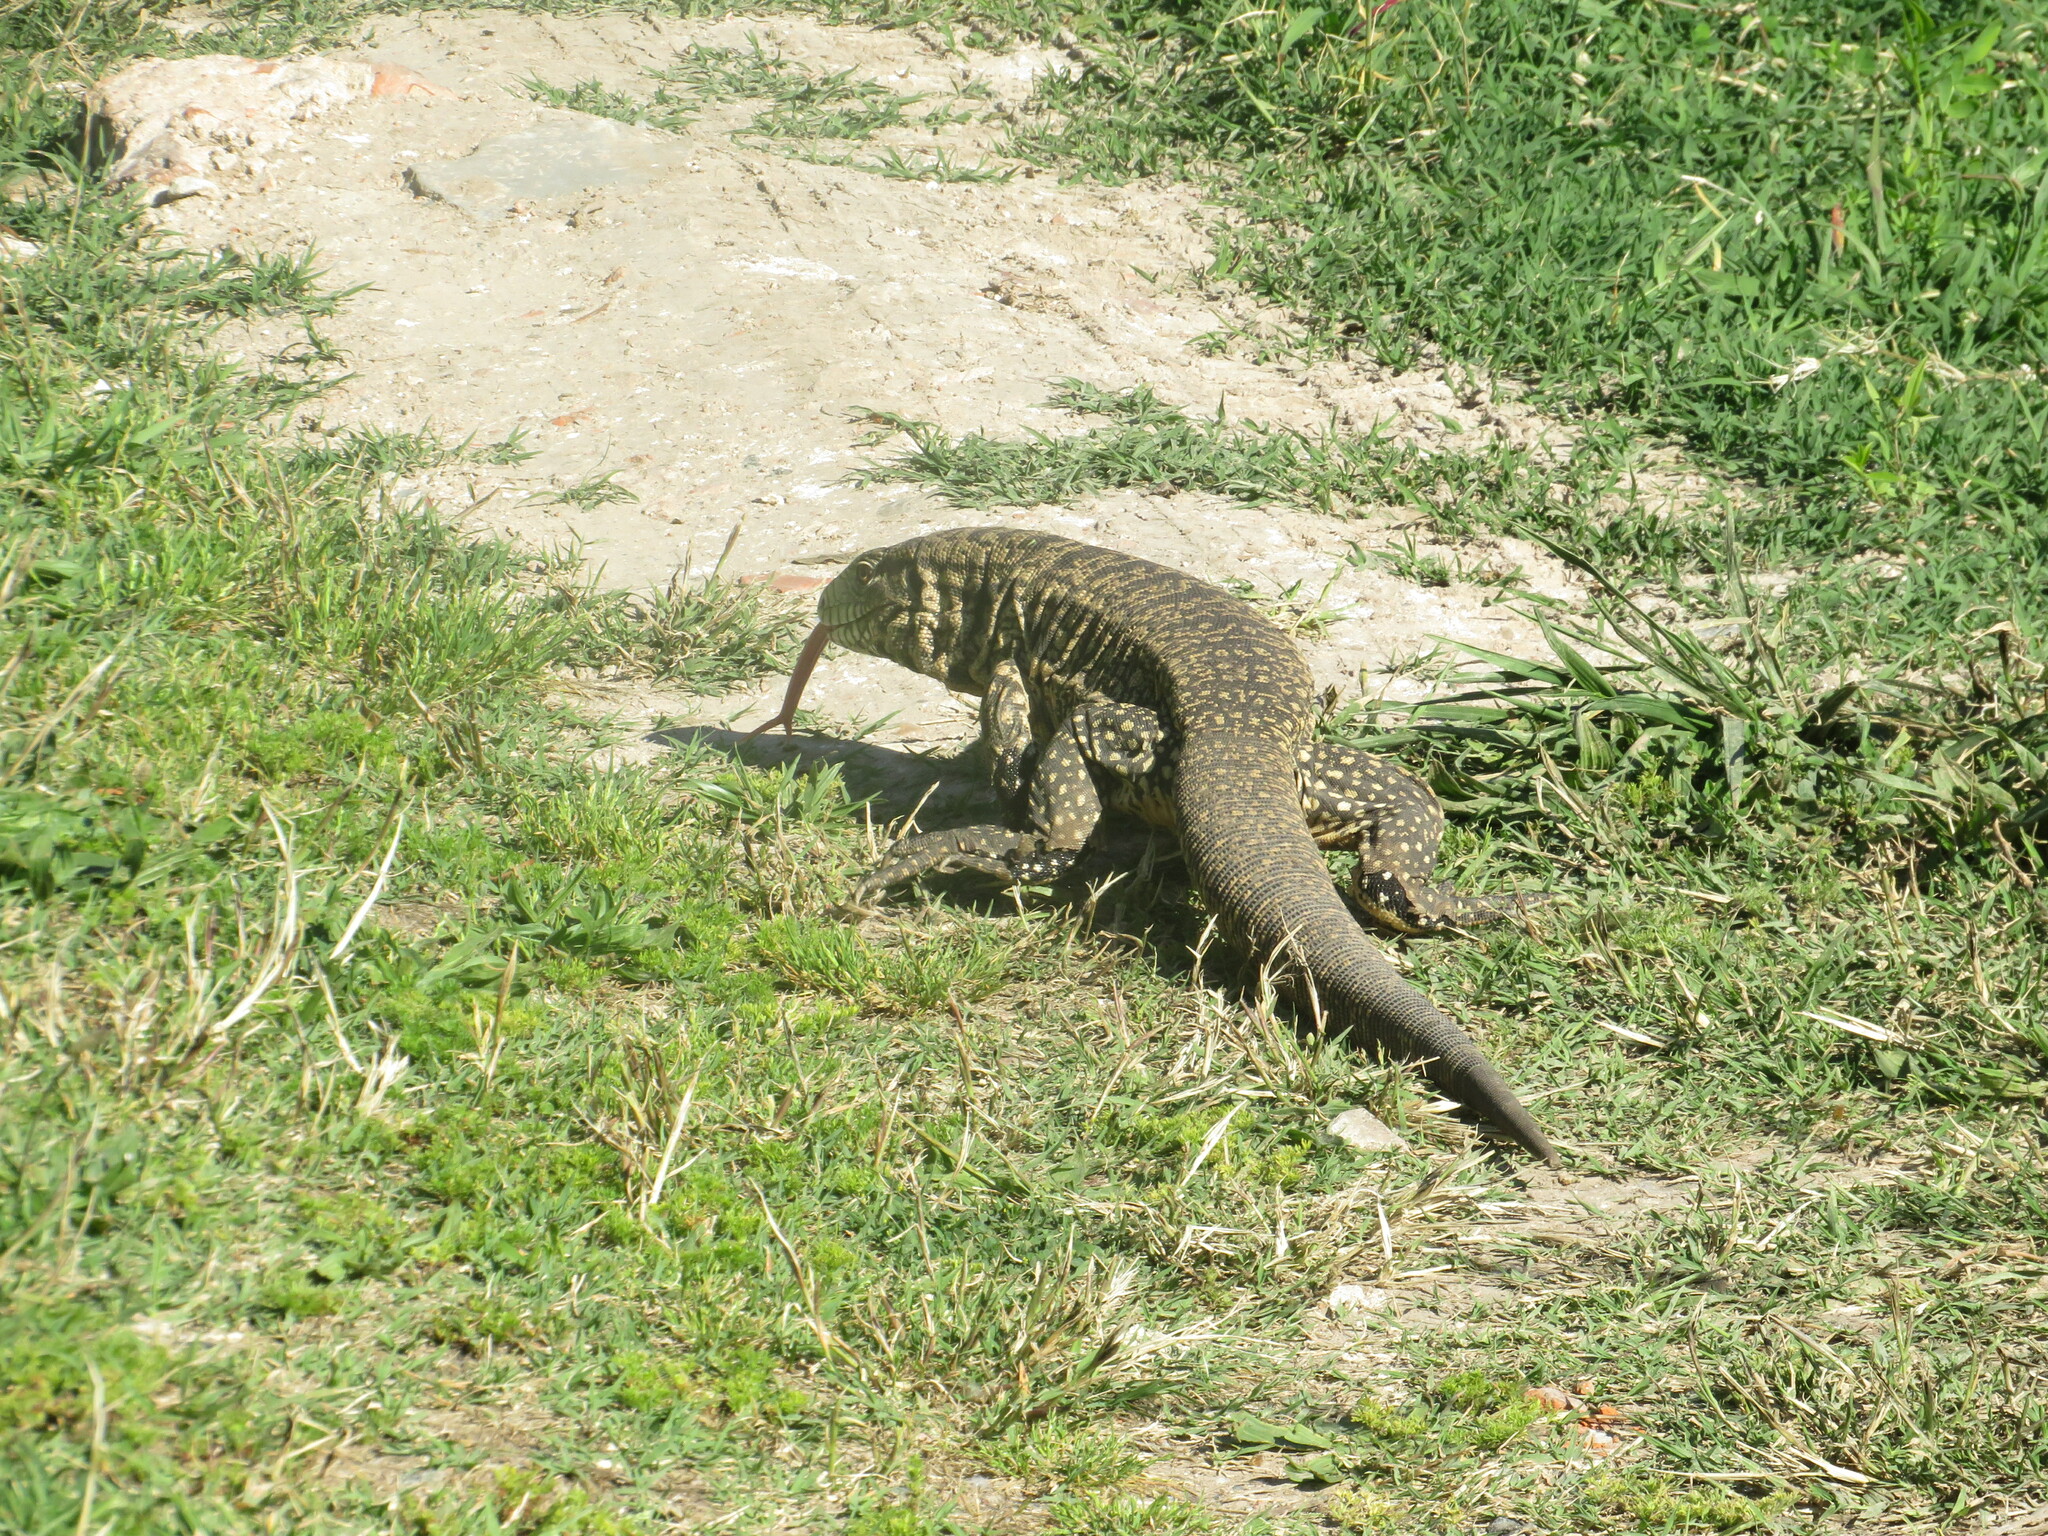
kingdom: Animalia
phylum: Chordata
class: Squamata
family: Teiidae
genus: Salvator
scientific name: Salvator merianae
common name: Argentine black and white tegu
